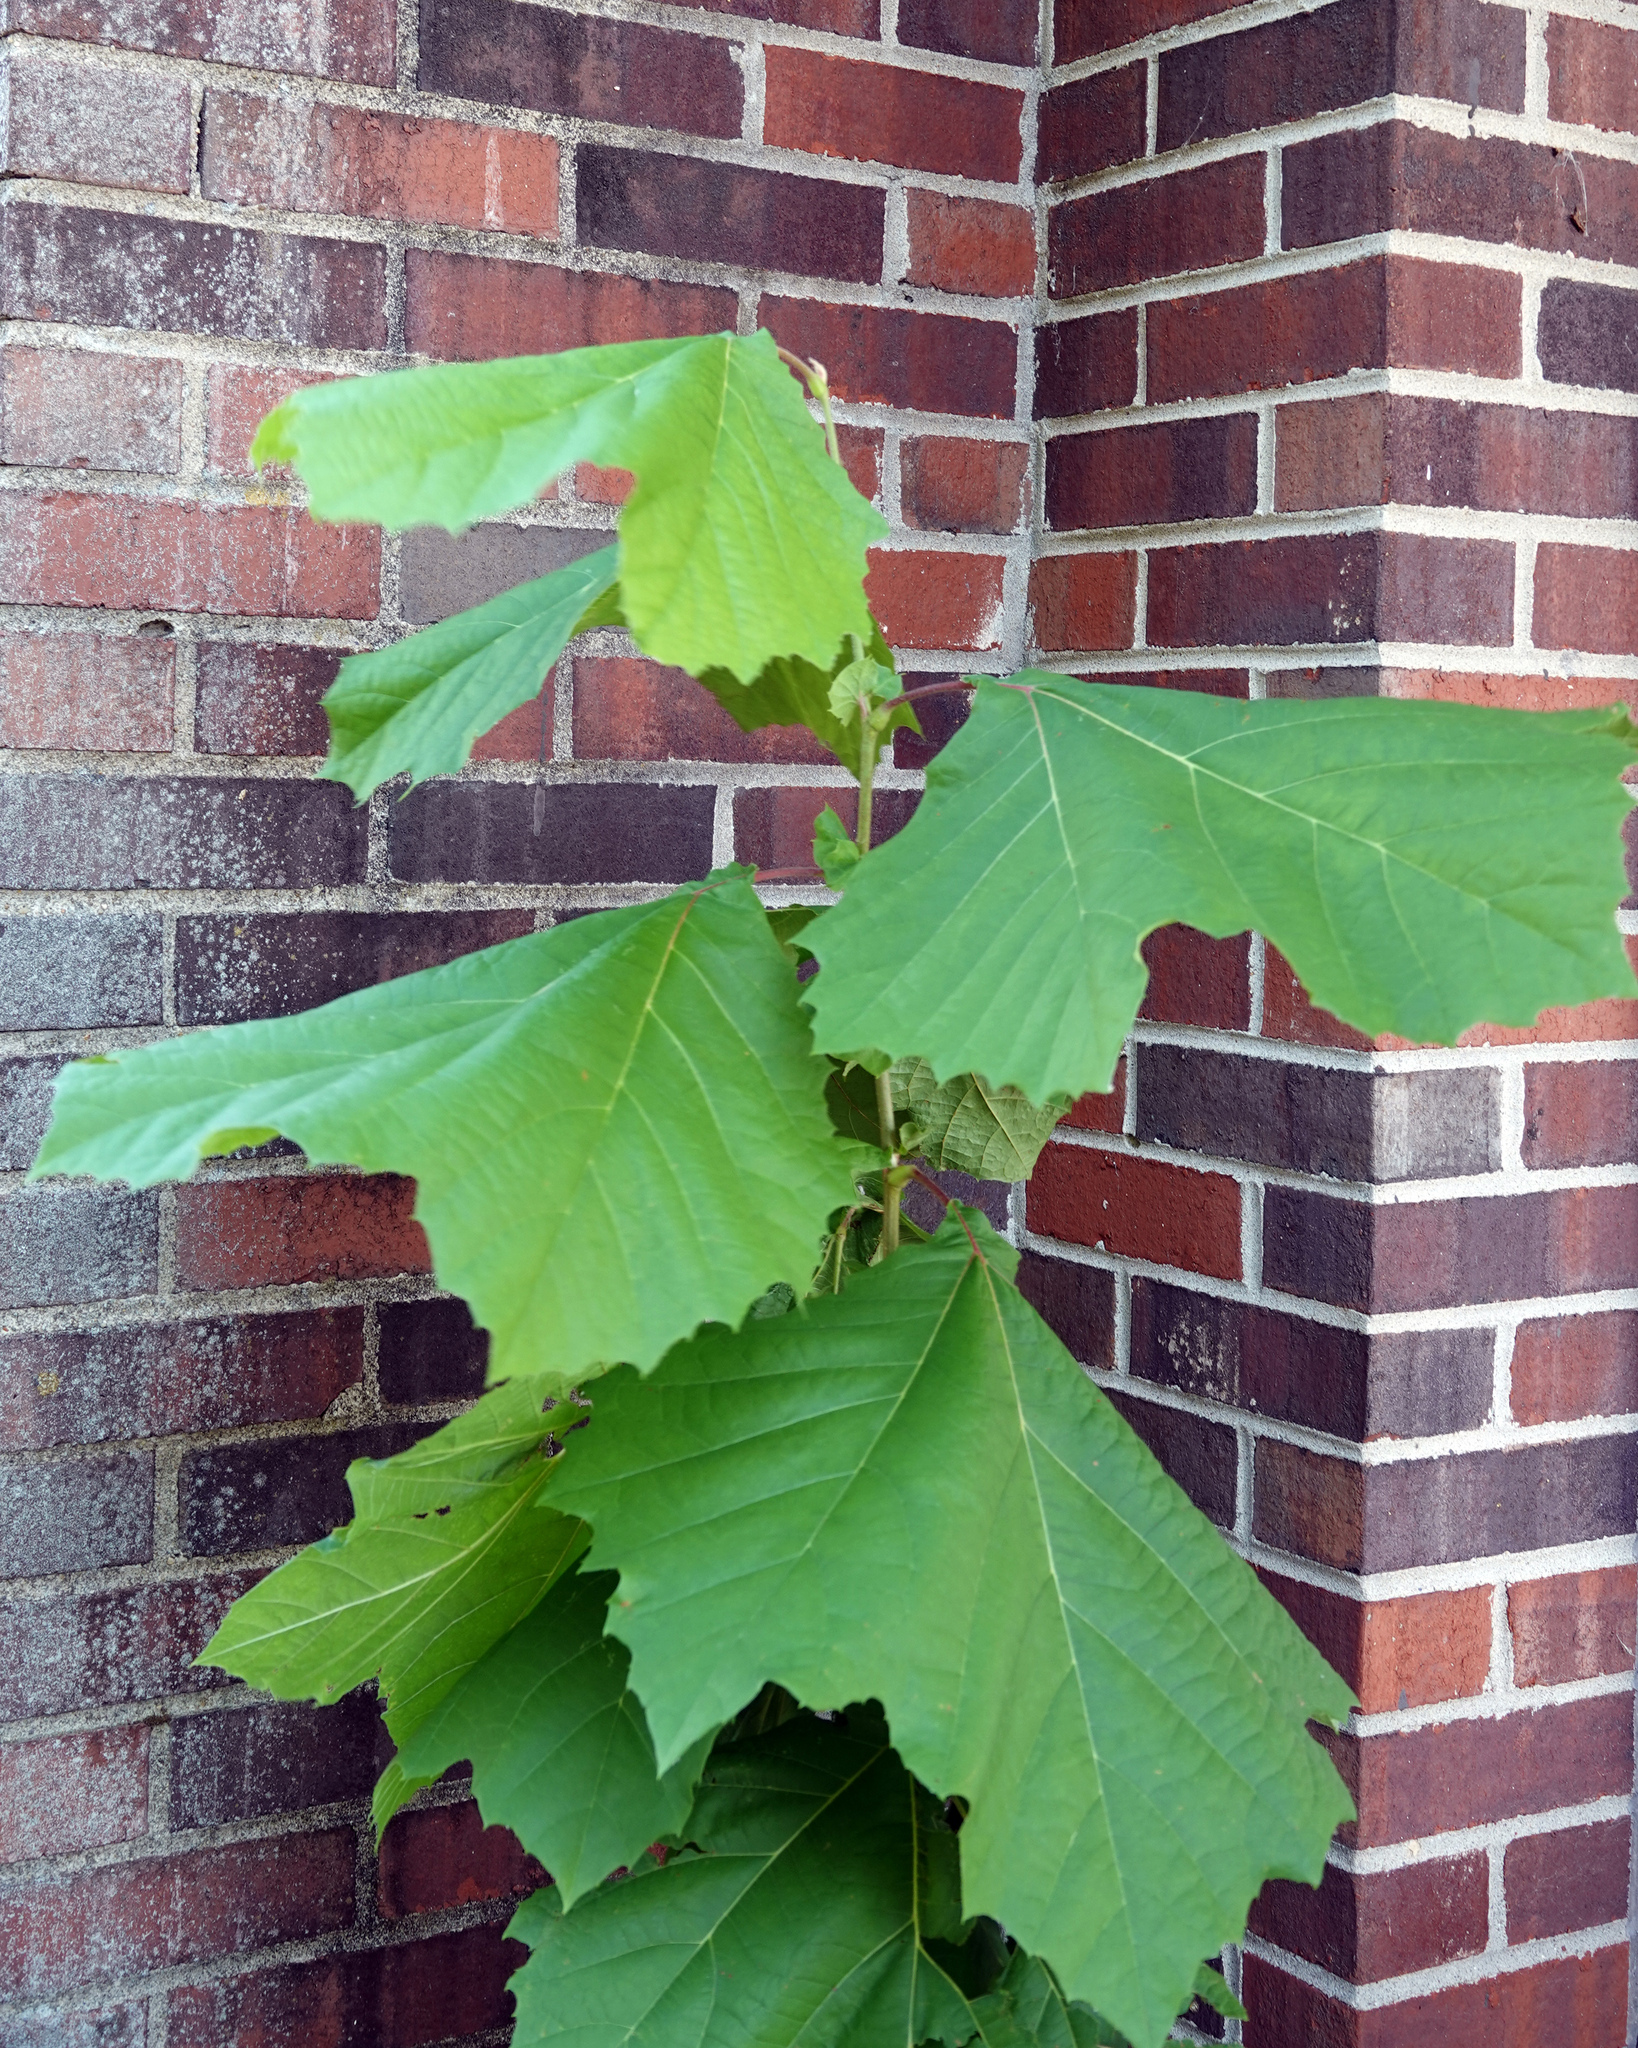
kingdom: Plantae
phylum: Tracheophyta
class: Magnoliopsida
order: Proteales
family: Platanaceae
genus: Platanus
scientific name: Platanus occidentalis
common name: American sycamore
